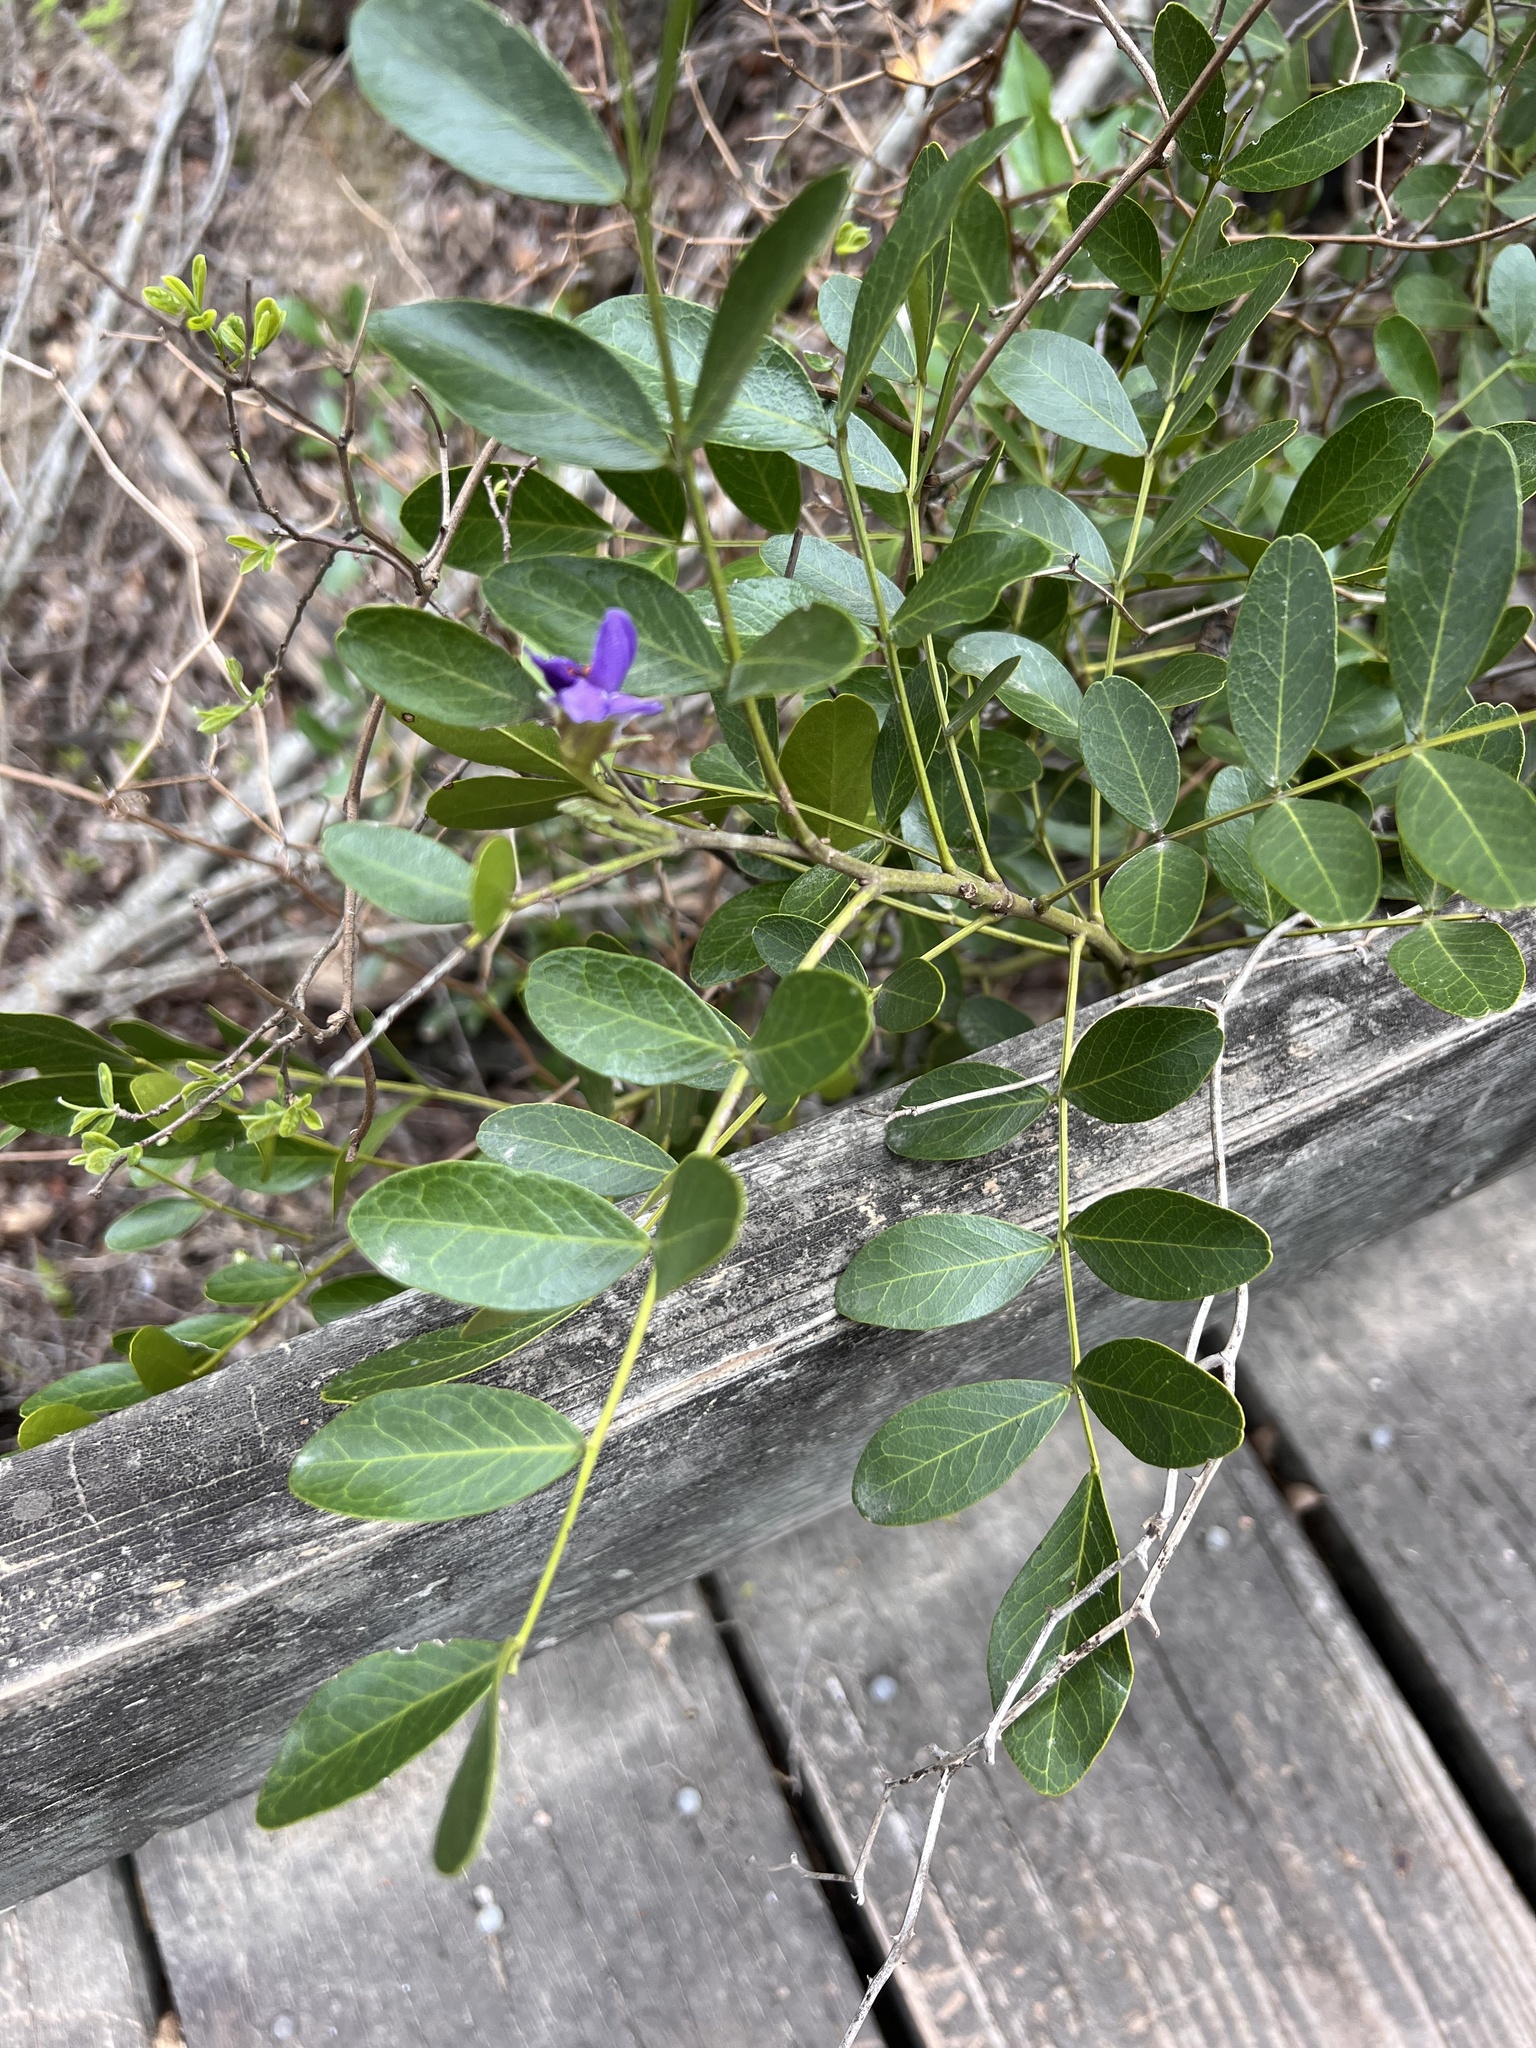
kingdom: Plantae
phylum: Tracheophyta
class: Magnoliopsida
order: Fabales
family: Fabaceae
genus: Dermatophyllum
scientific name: Dermatophyllum secundiflorum
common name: Texas-mountain-laurel
